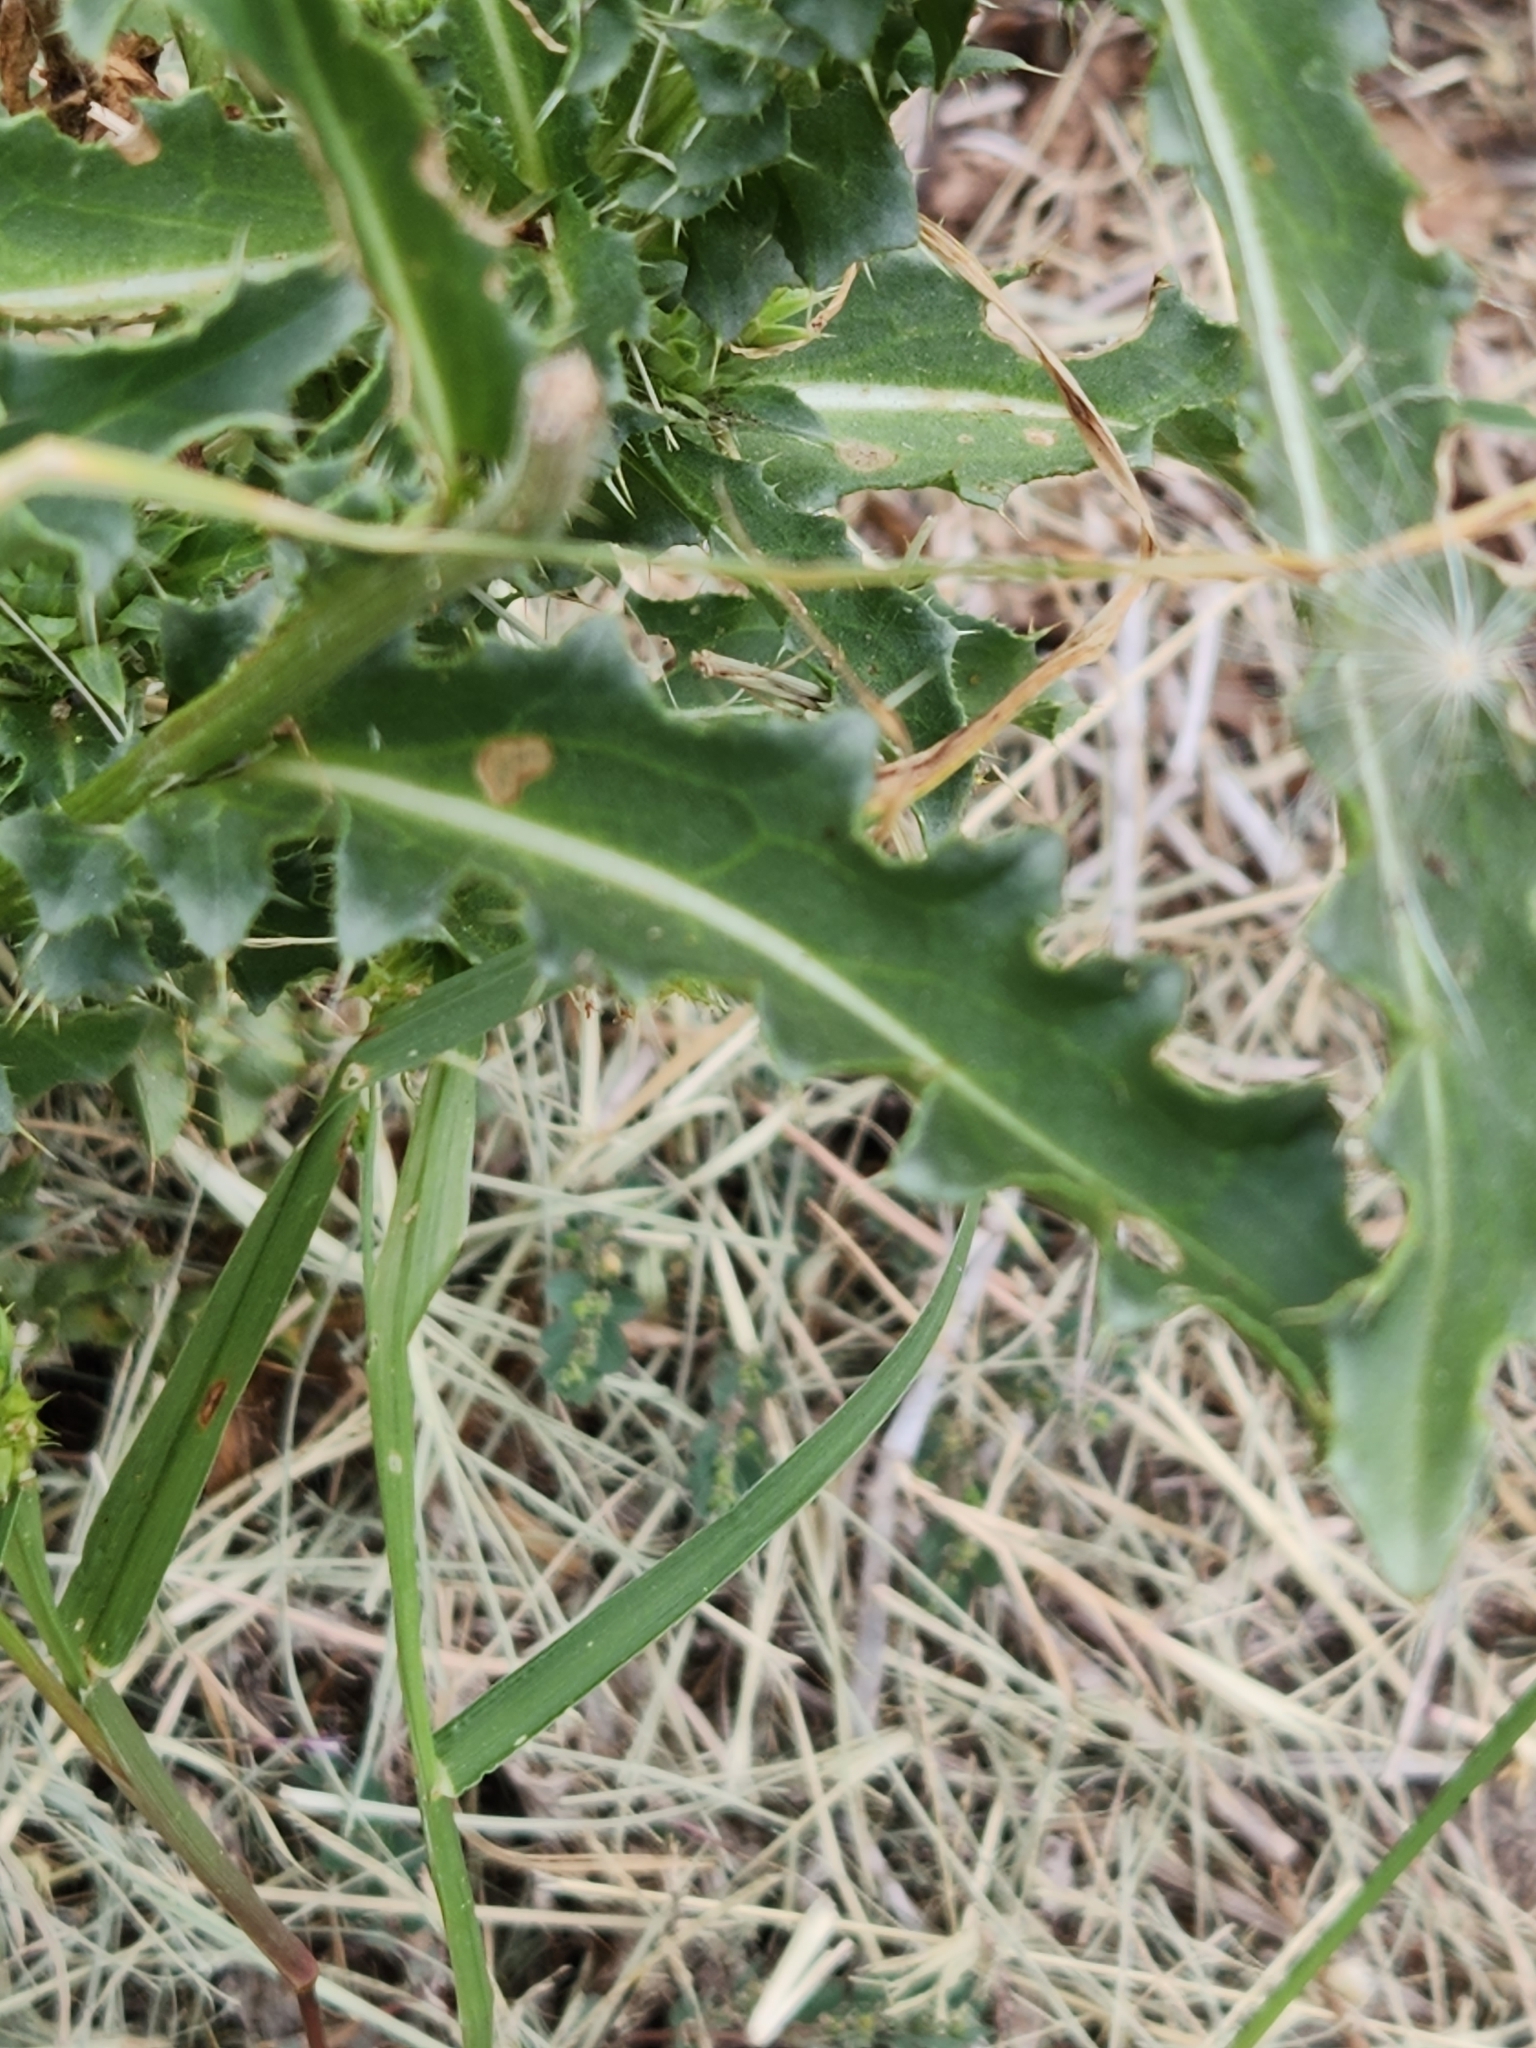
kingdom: Plantae
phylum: Tracheophyta
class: Magnoliopsida
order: Asterales
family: Asteraceae
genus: Carduus
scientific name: Carduus nutans
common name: Musk thistle
